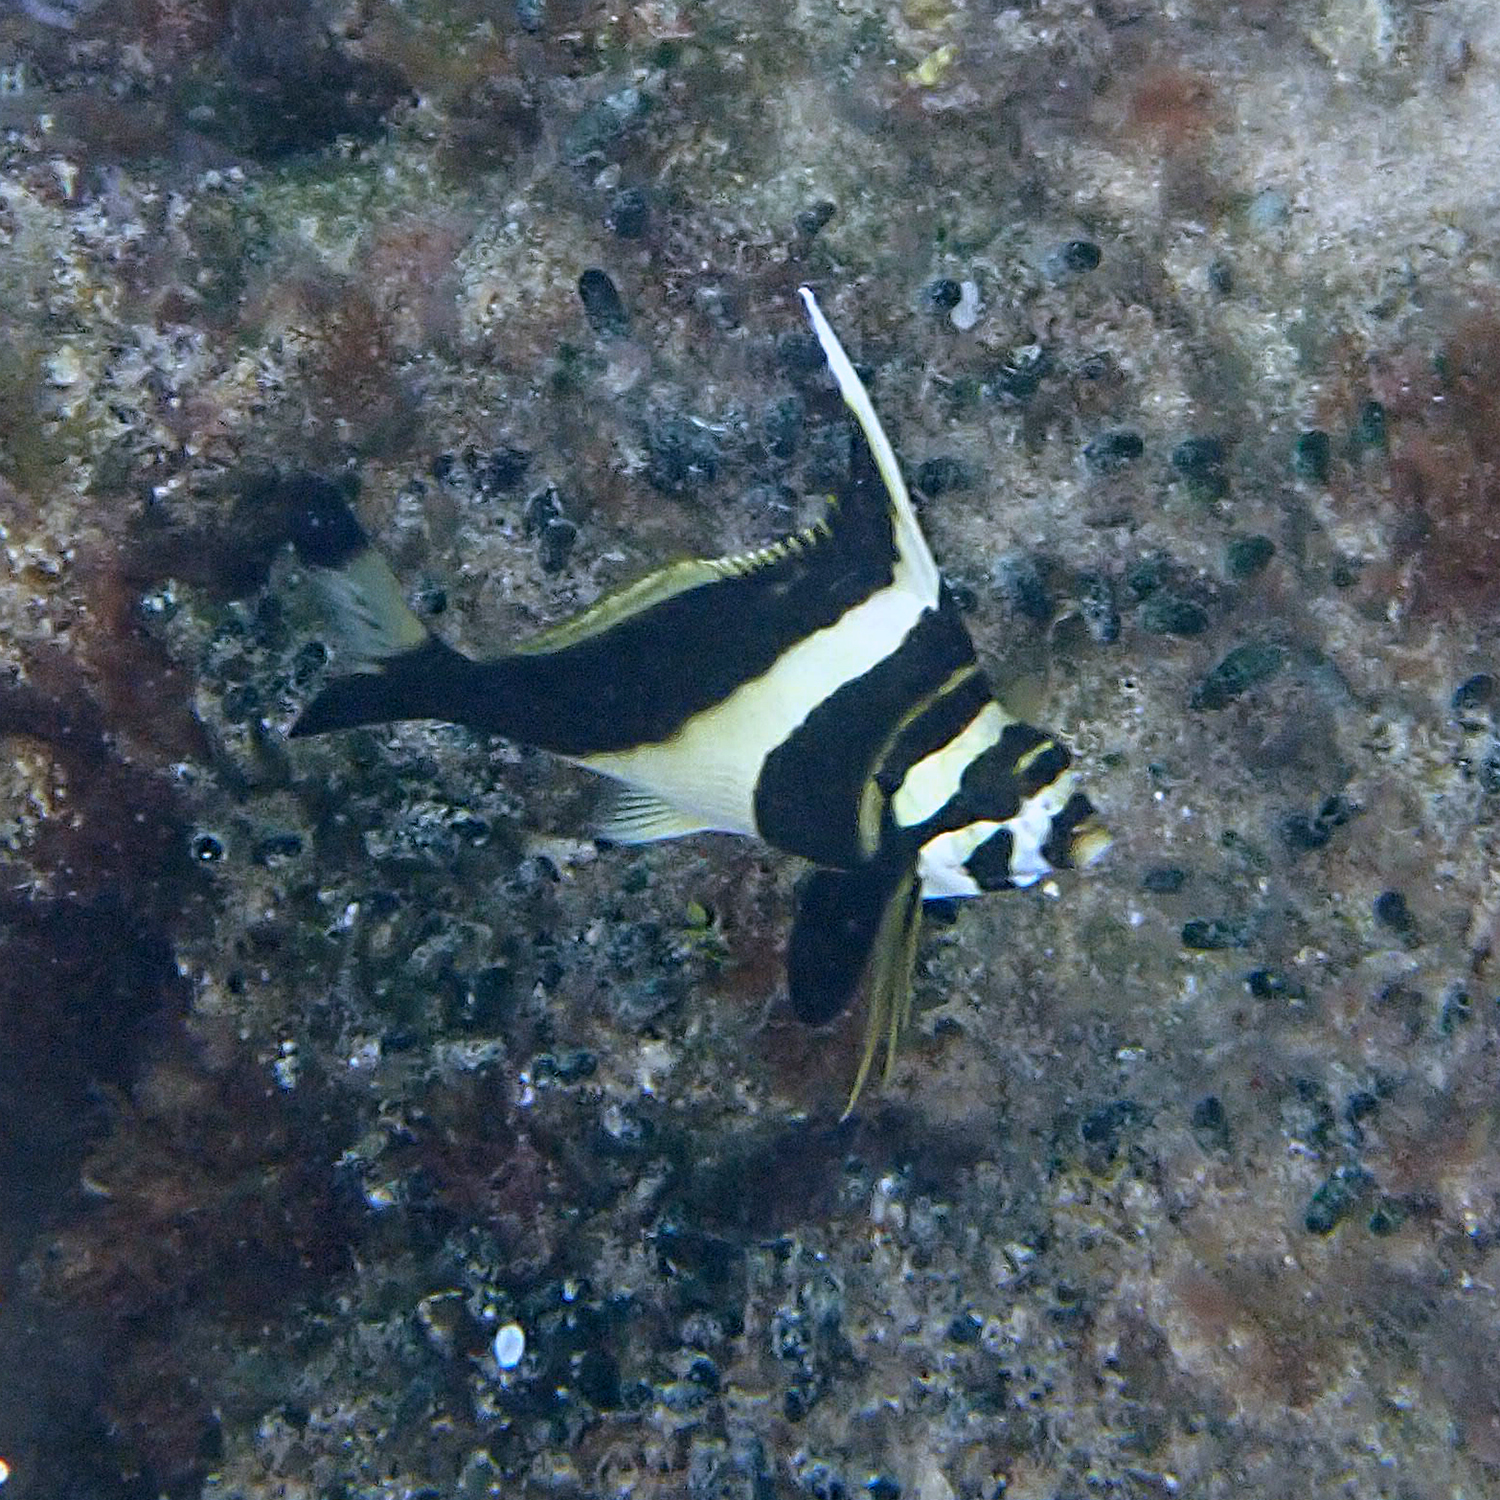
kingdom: Animalia
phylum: Chordata
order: Perciformes
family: Cheilodactylidae
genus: Cheilodactylus
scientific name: Cheilodactylus francisi
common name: Blacktip morwong
